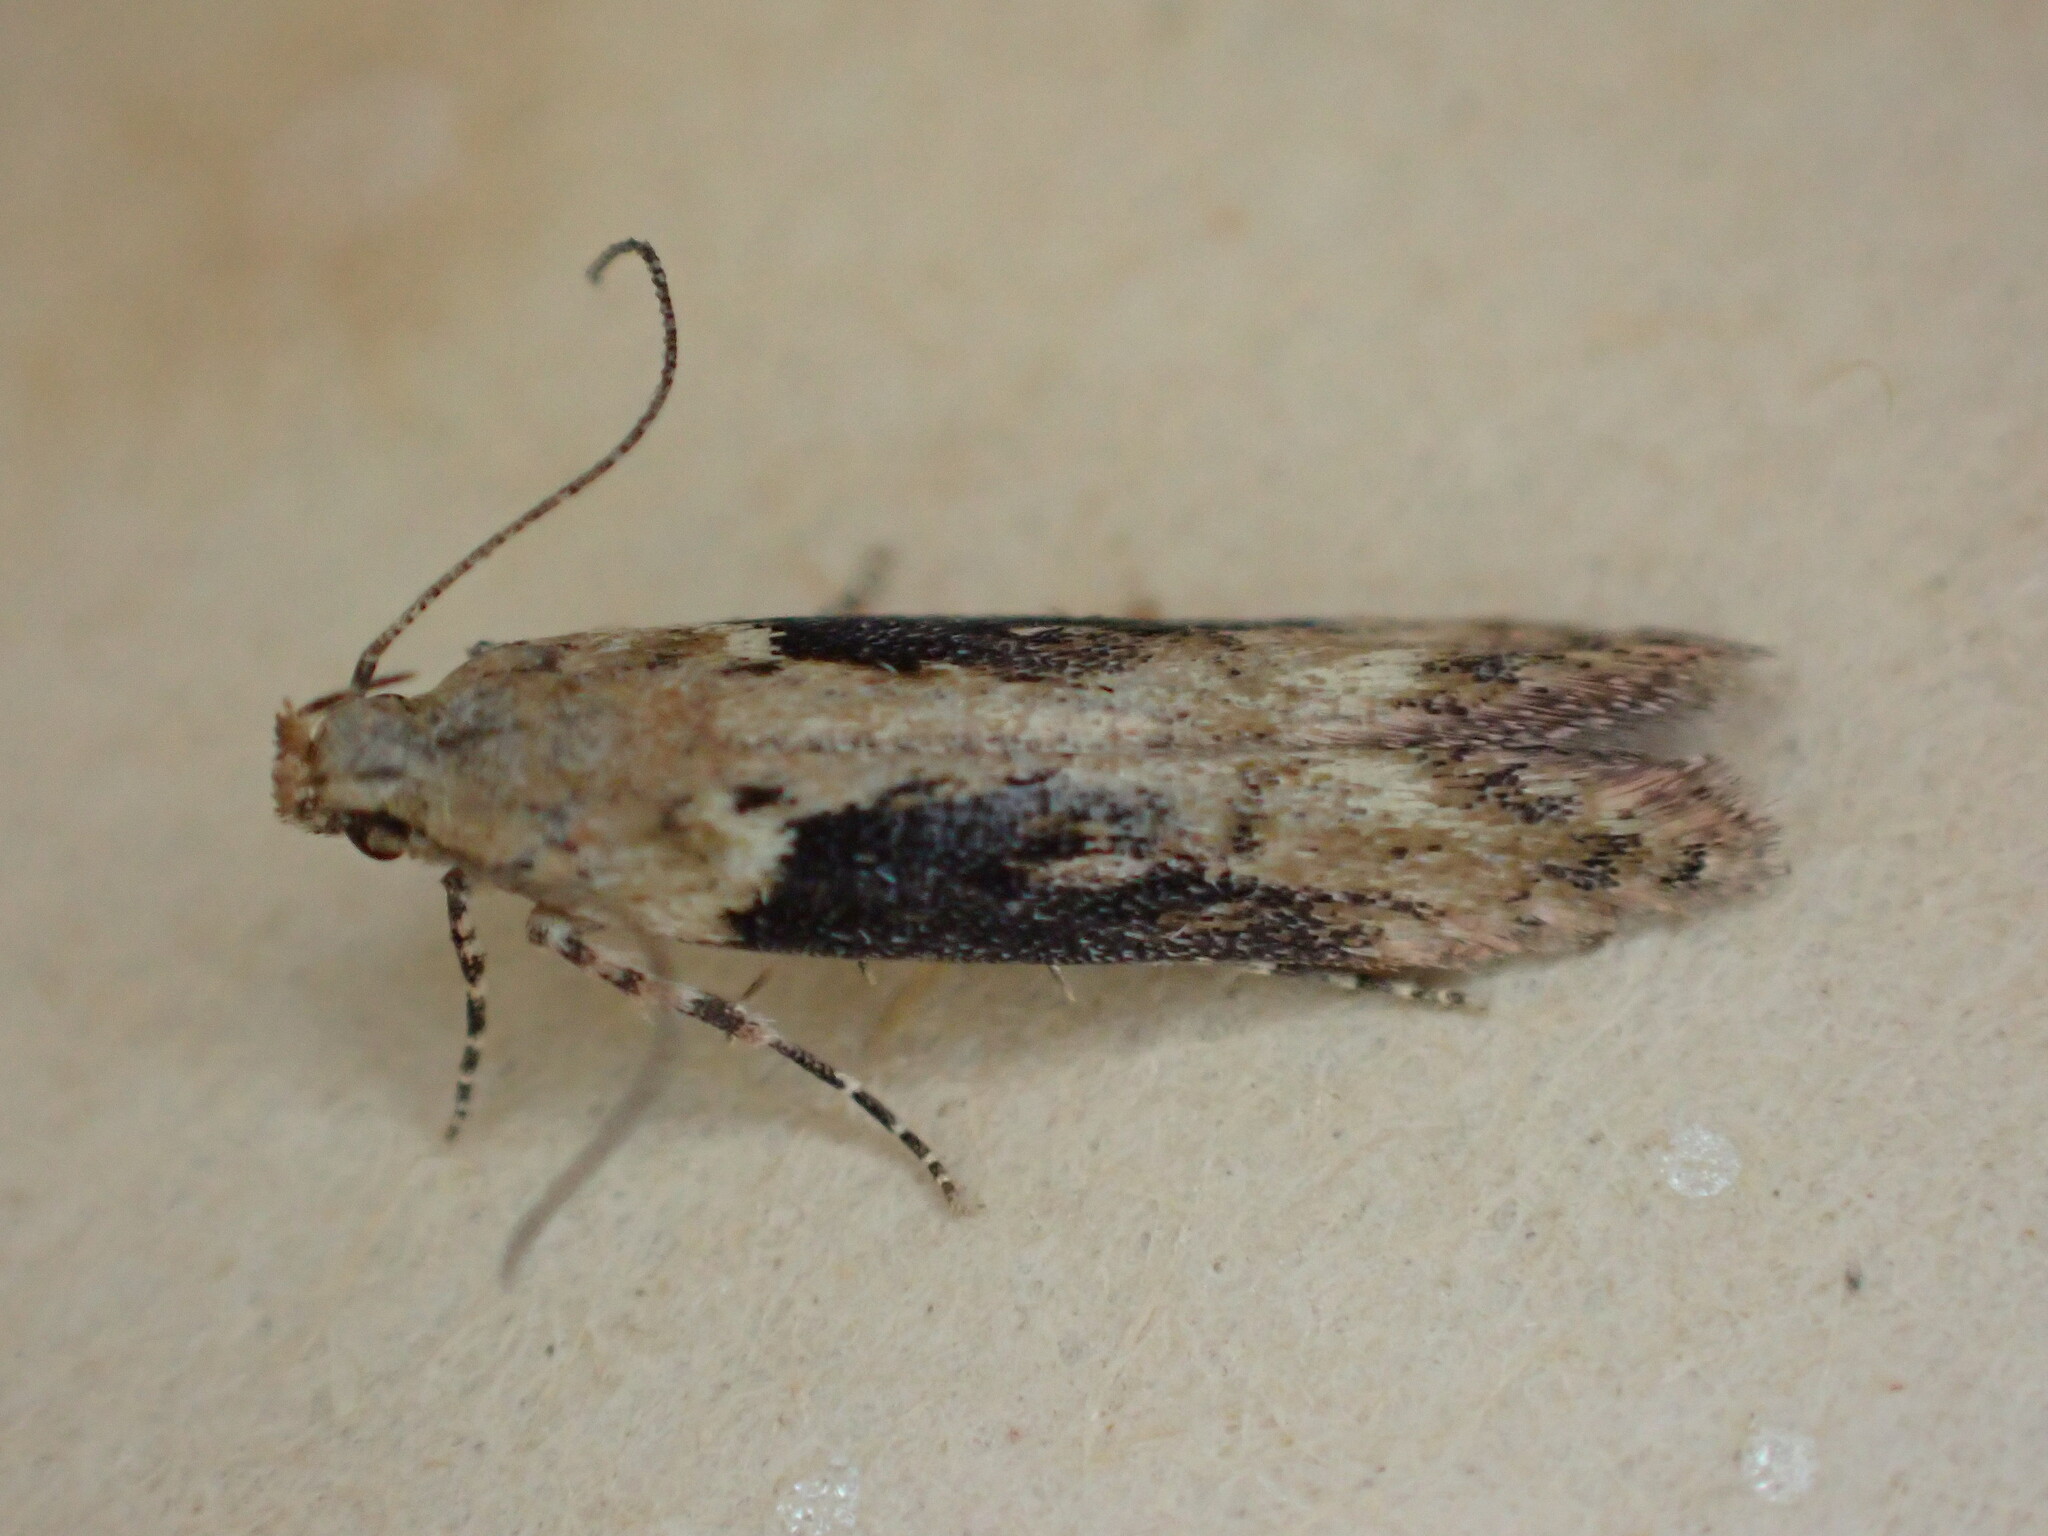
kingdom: Animalia
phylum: Arthropoda
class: Insecta
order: Lepidoptera
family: Gelechiidae
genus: Scrobipalpa
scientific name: Scrobipalpa costella
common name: Winter groundling
